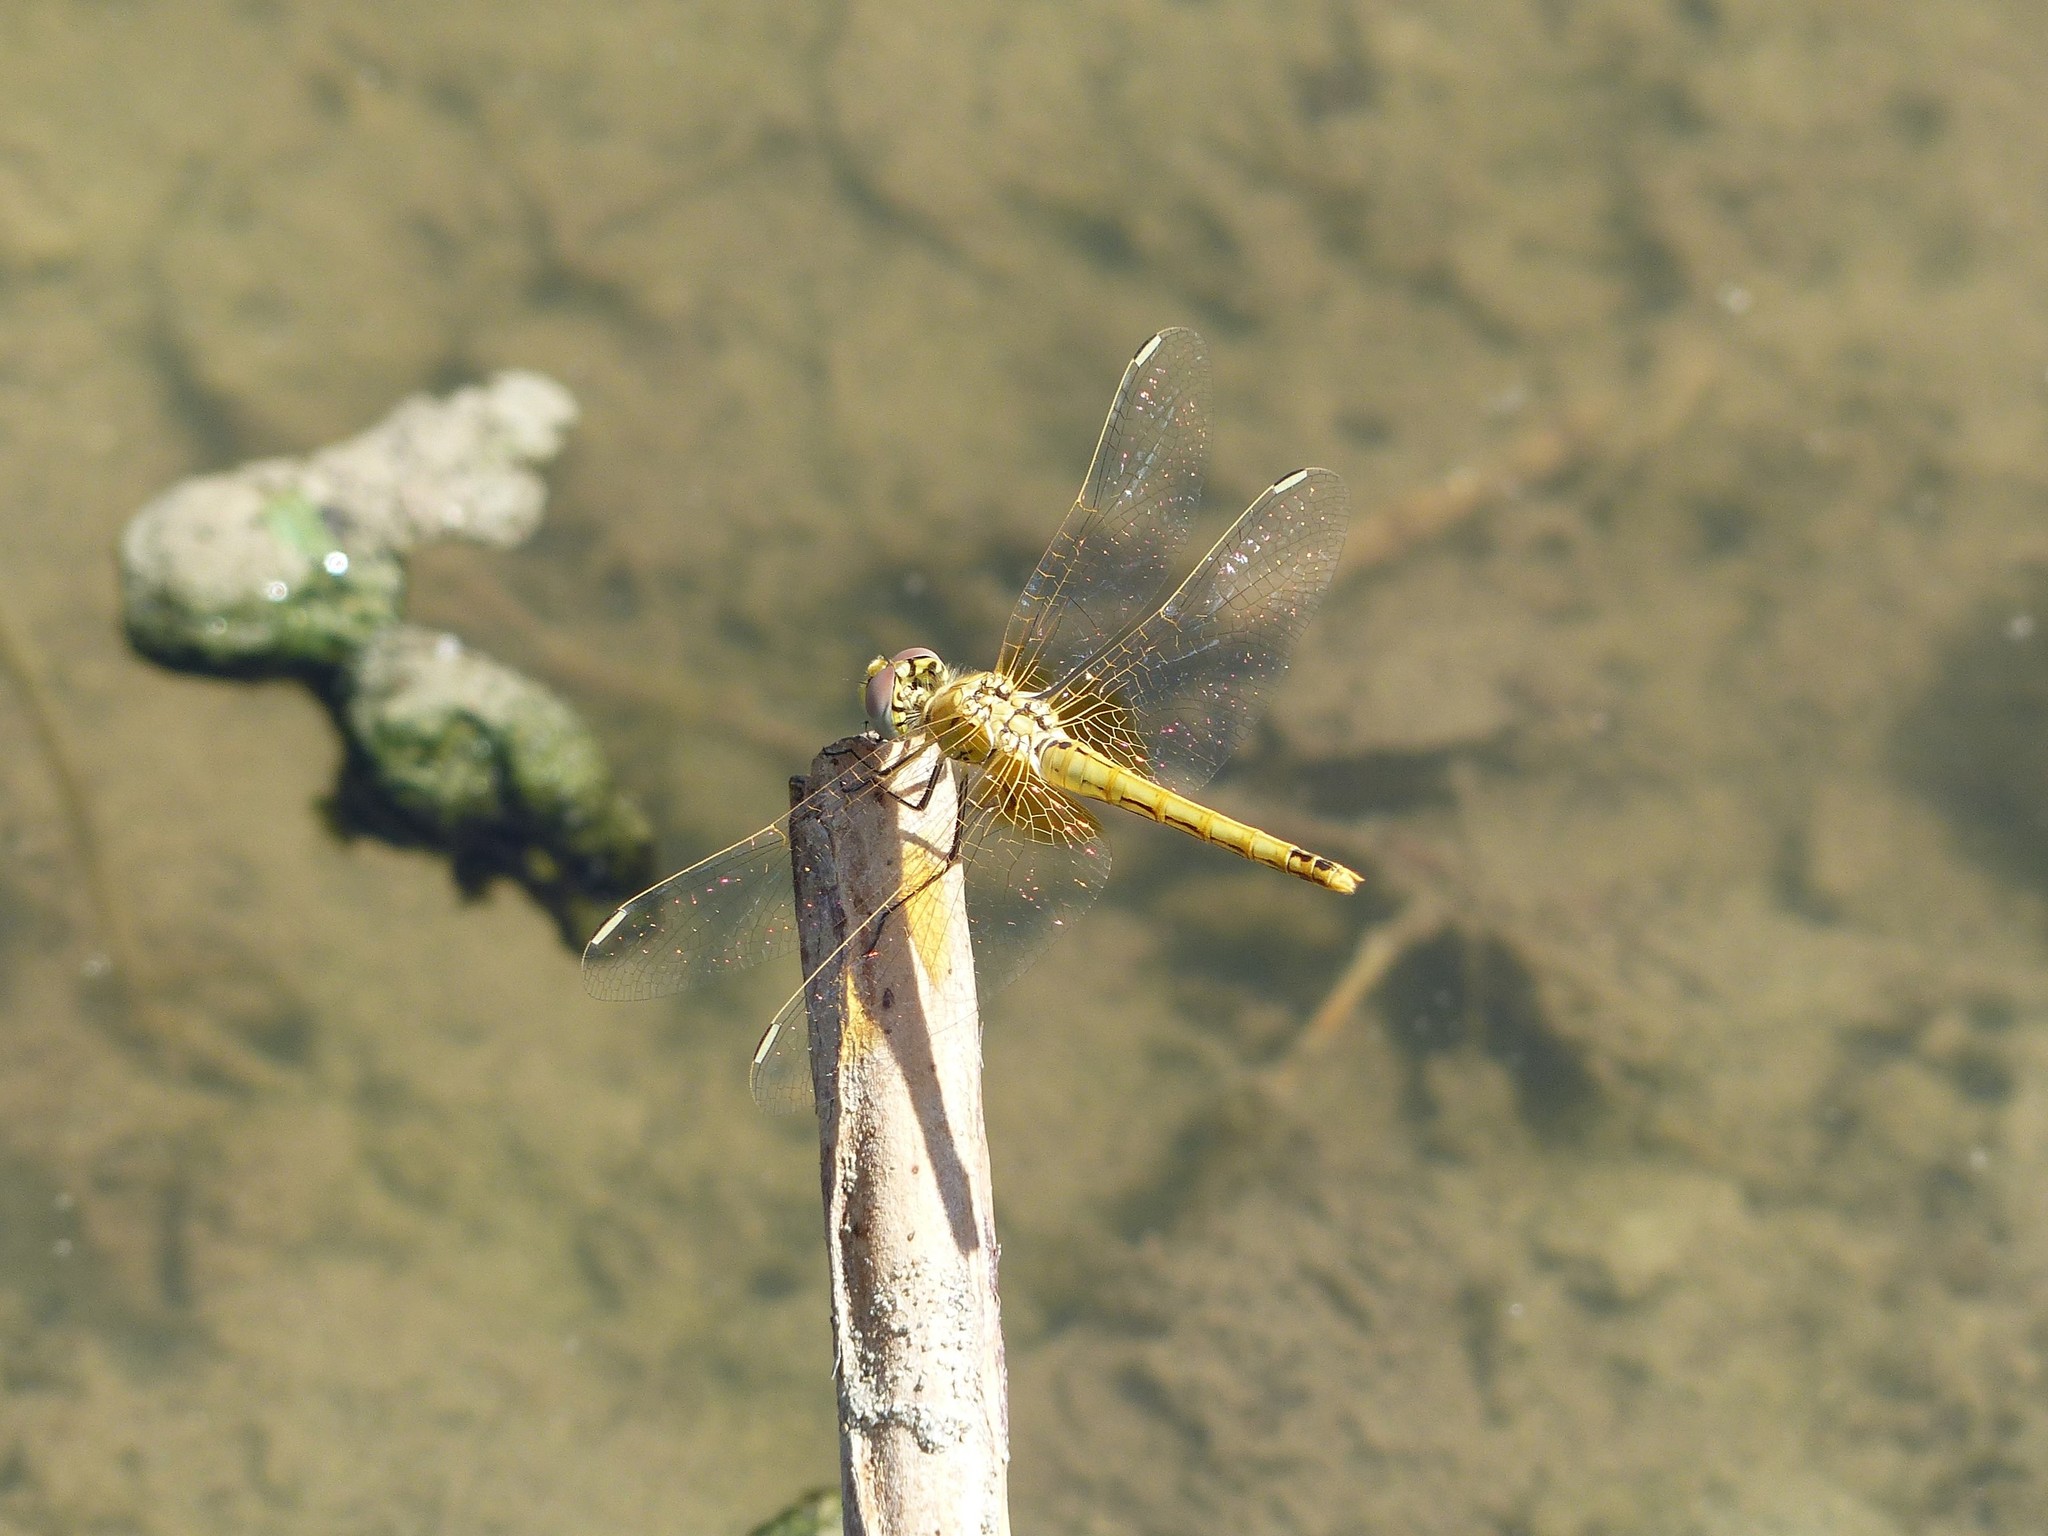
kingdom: Animalia
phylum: Arthropoda
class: Insecta
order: Odonata
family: Libellulidae
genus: Sympetrum
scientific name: Sympetrum fonscolombii
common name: Red-veined darter
